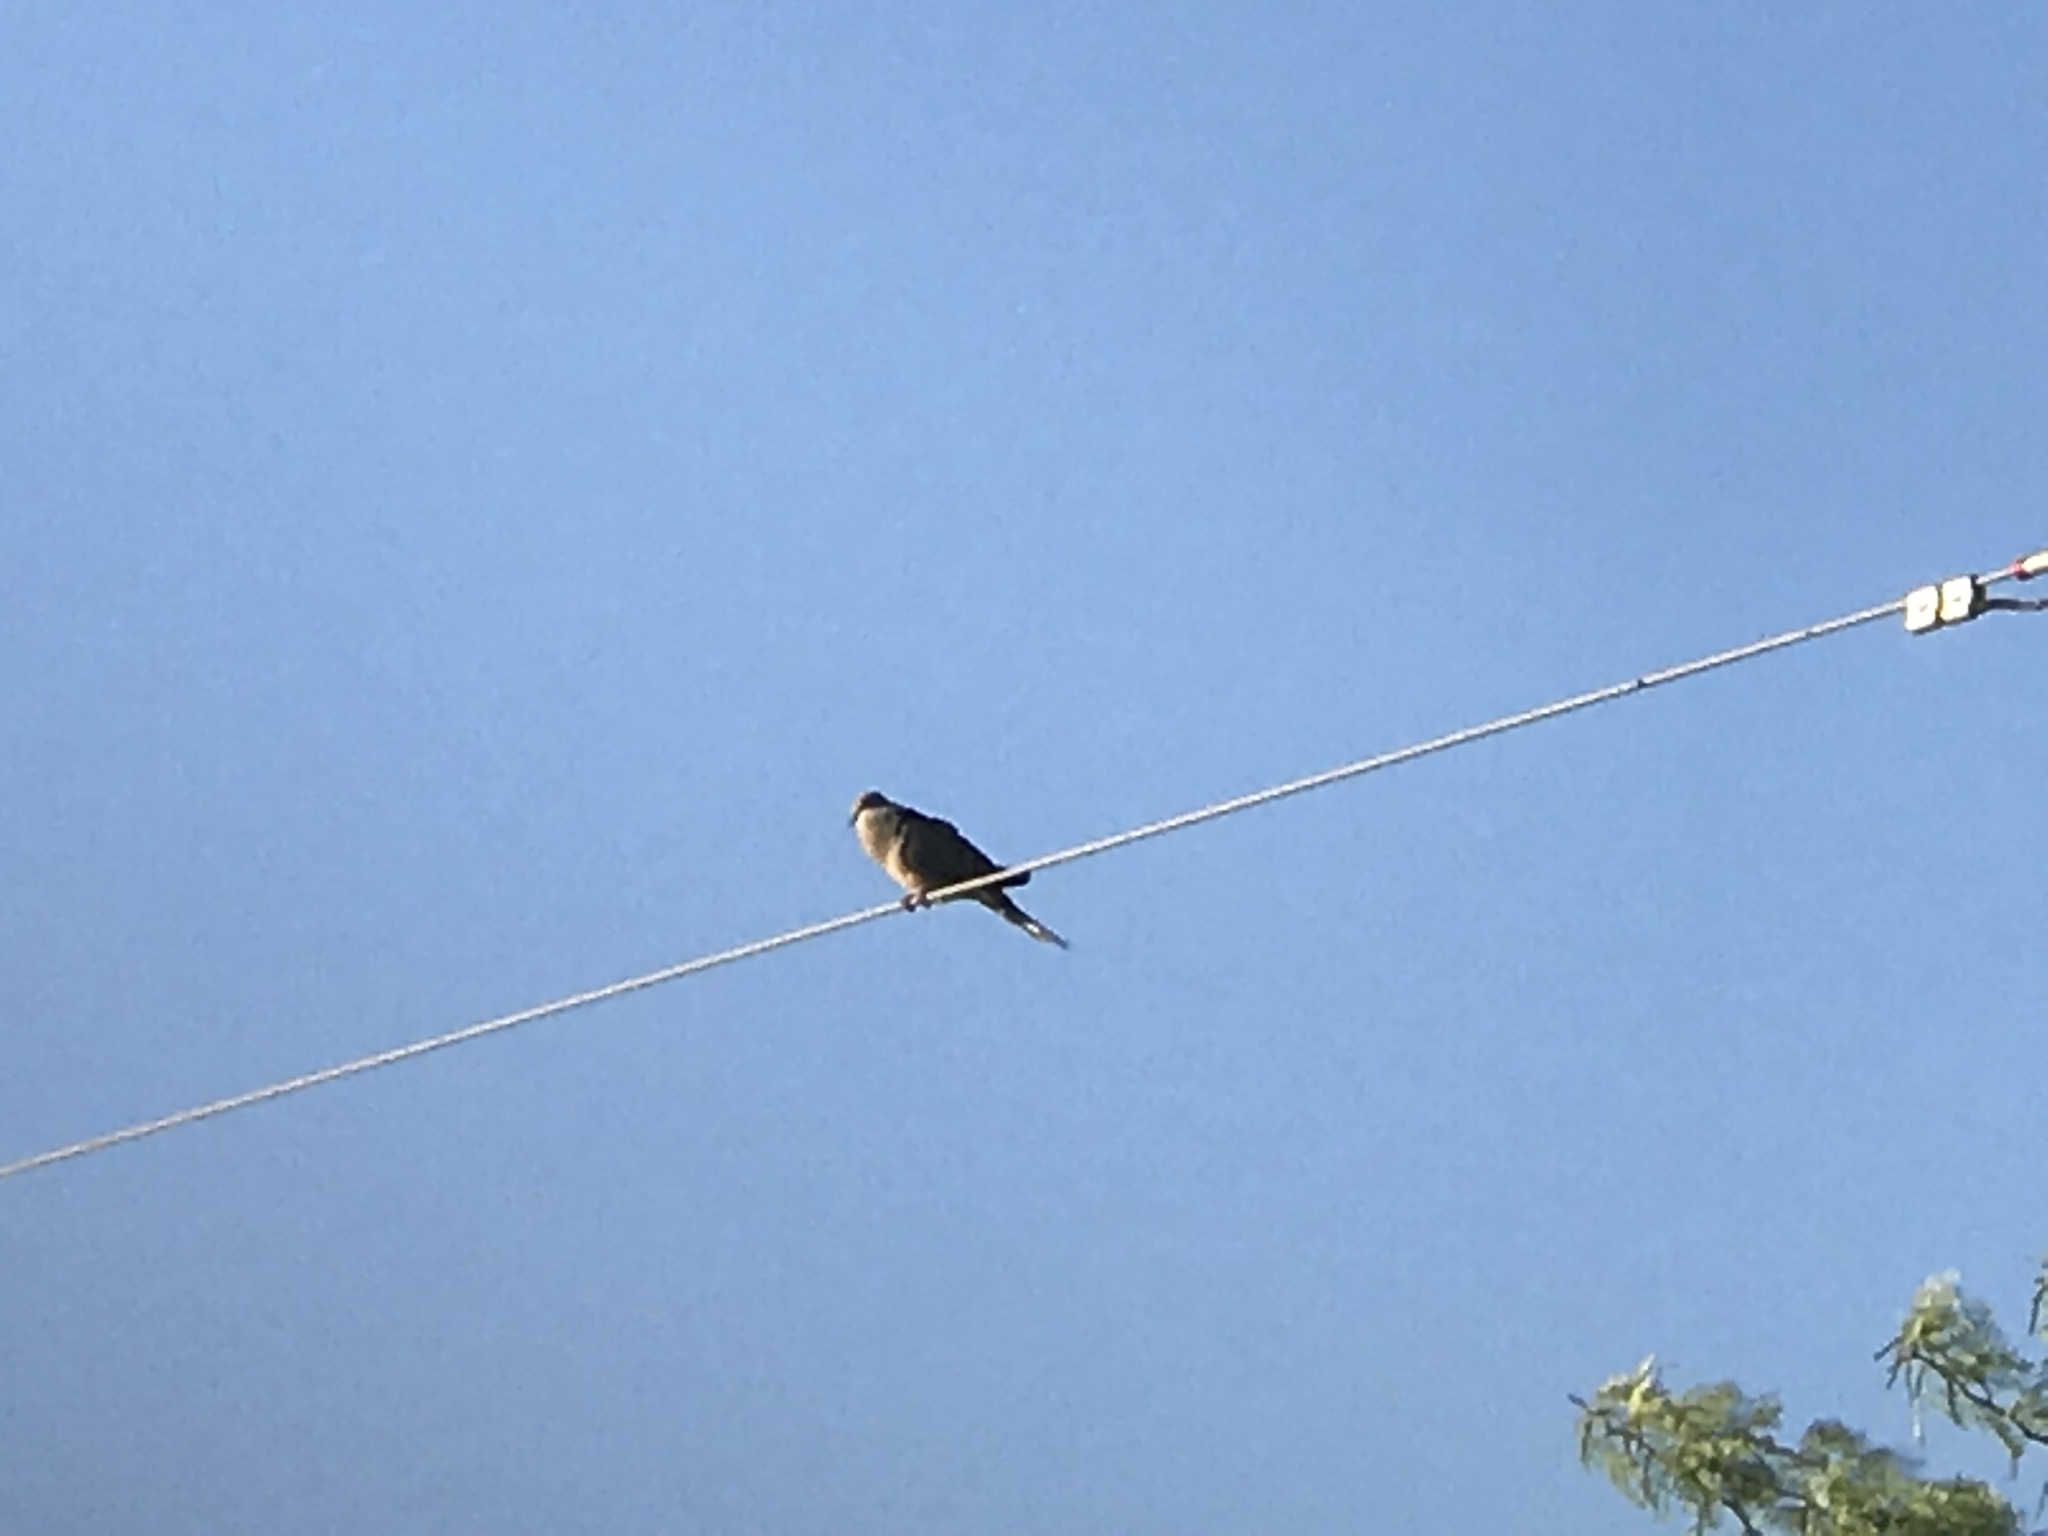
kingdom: Animalia
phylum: Chordata
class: Aves
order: Columbiformes
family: Columbidae
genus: Zenaida
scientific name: Zenaida macroura
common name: Mourning dove
